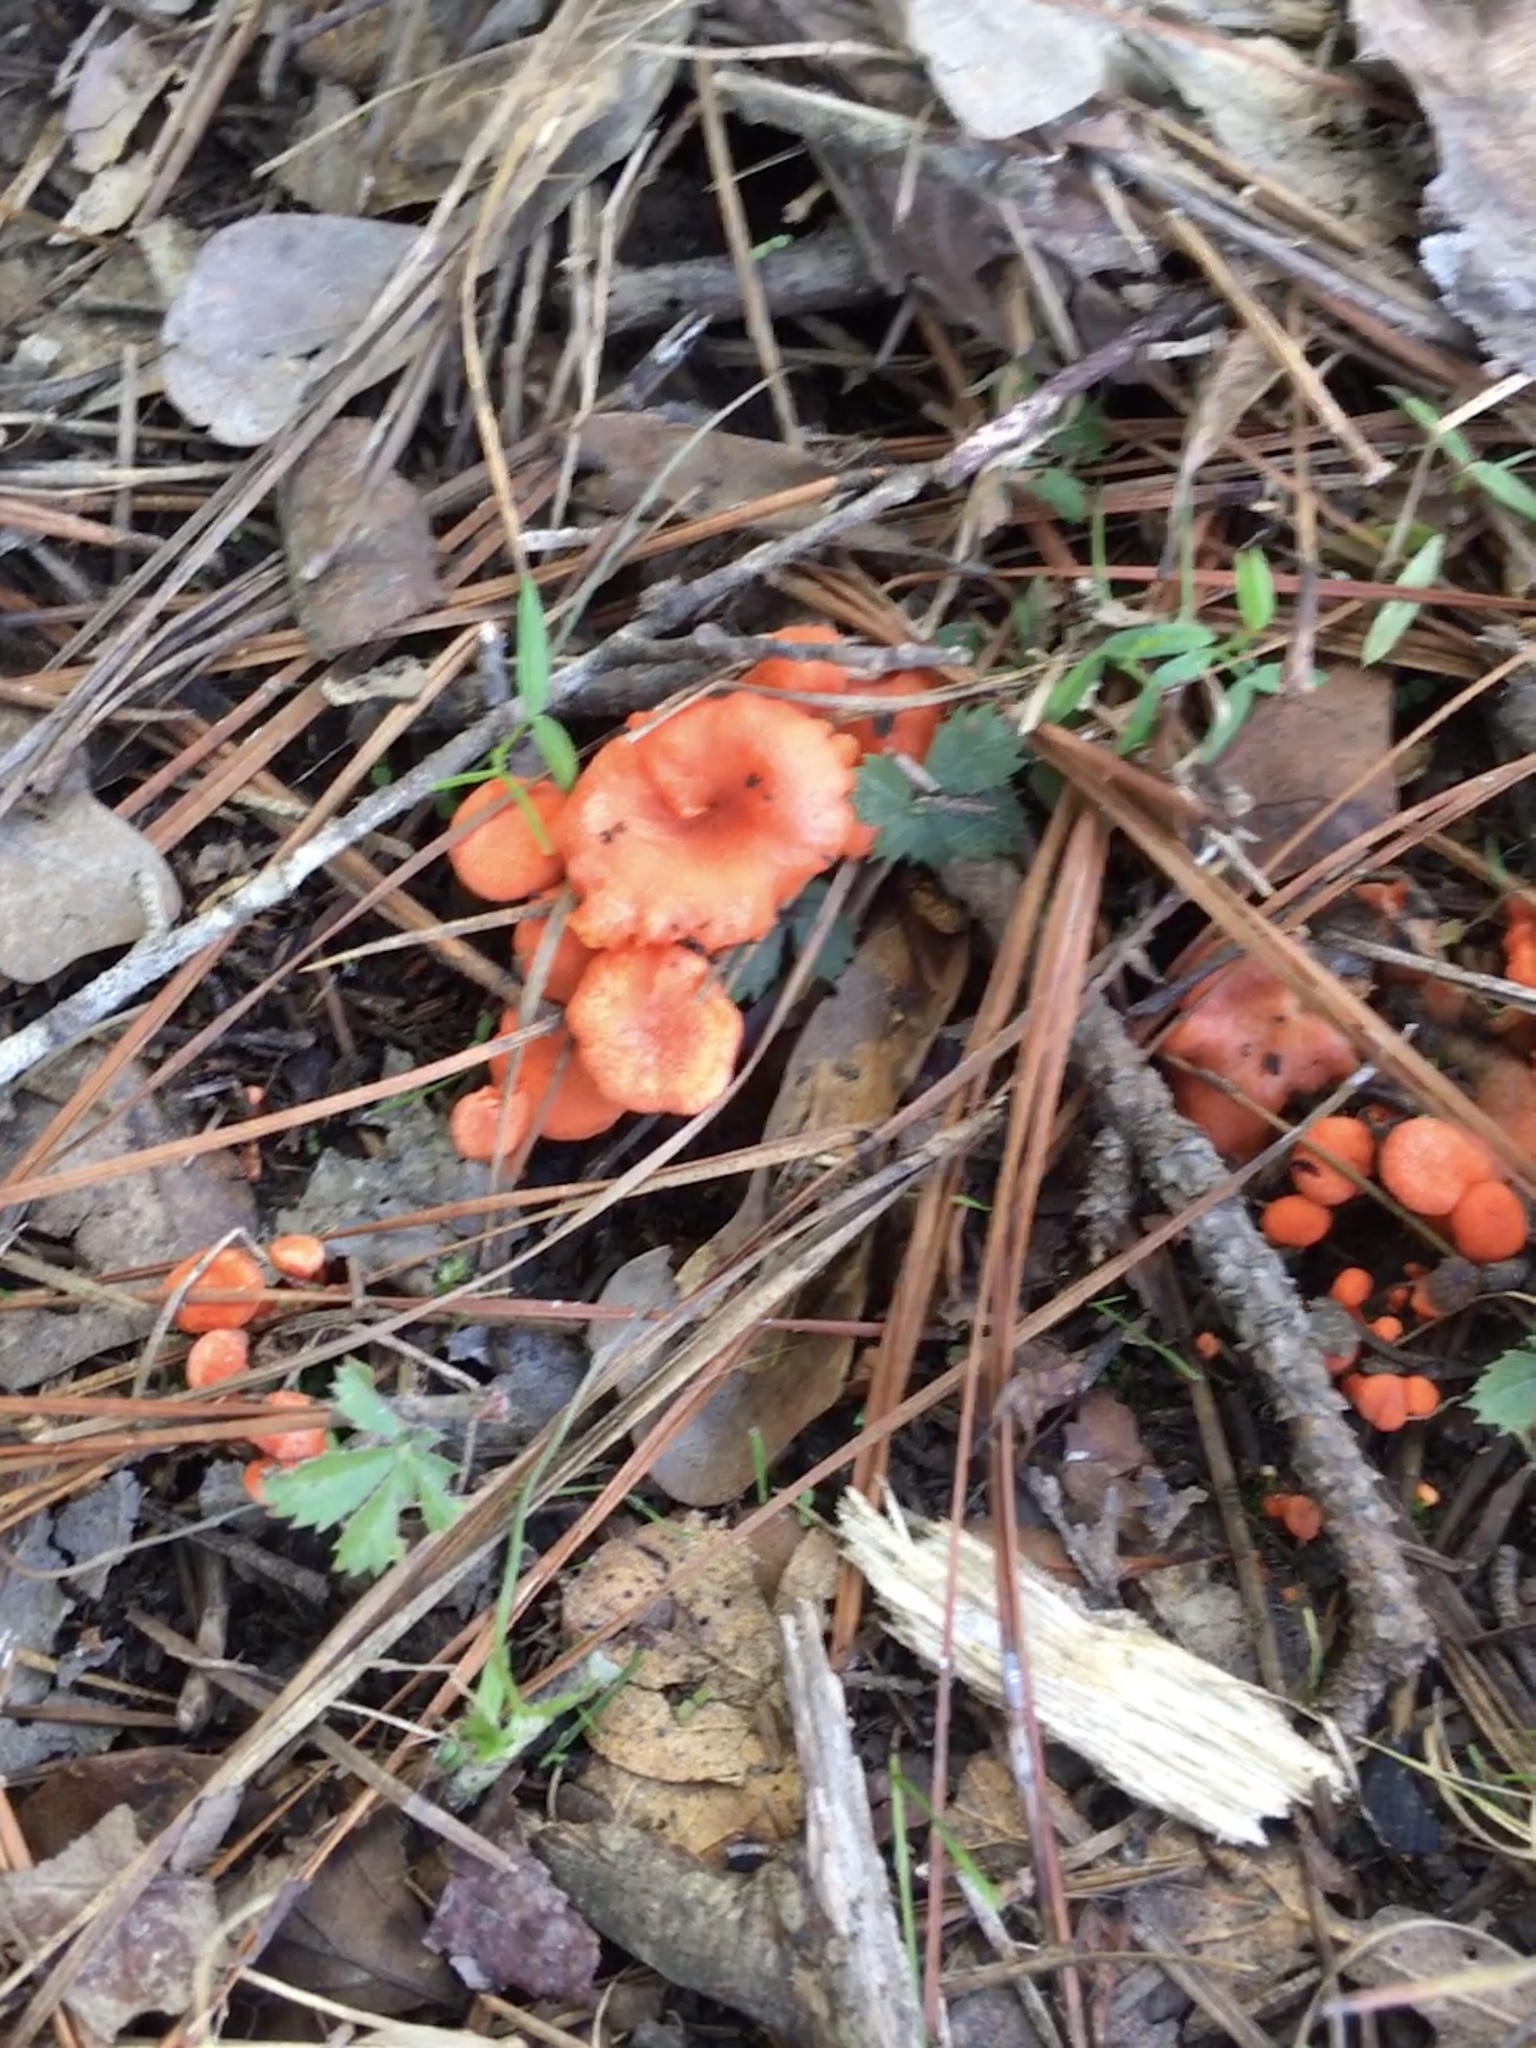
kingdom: Fungi
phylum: Basidiomycota
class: Agaricomycetes
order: Cantharellales
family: Hydnaceae
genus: Cantharellus
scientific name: Cantharellus cinnabarinus
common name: Cinnabar chanterelle
